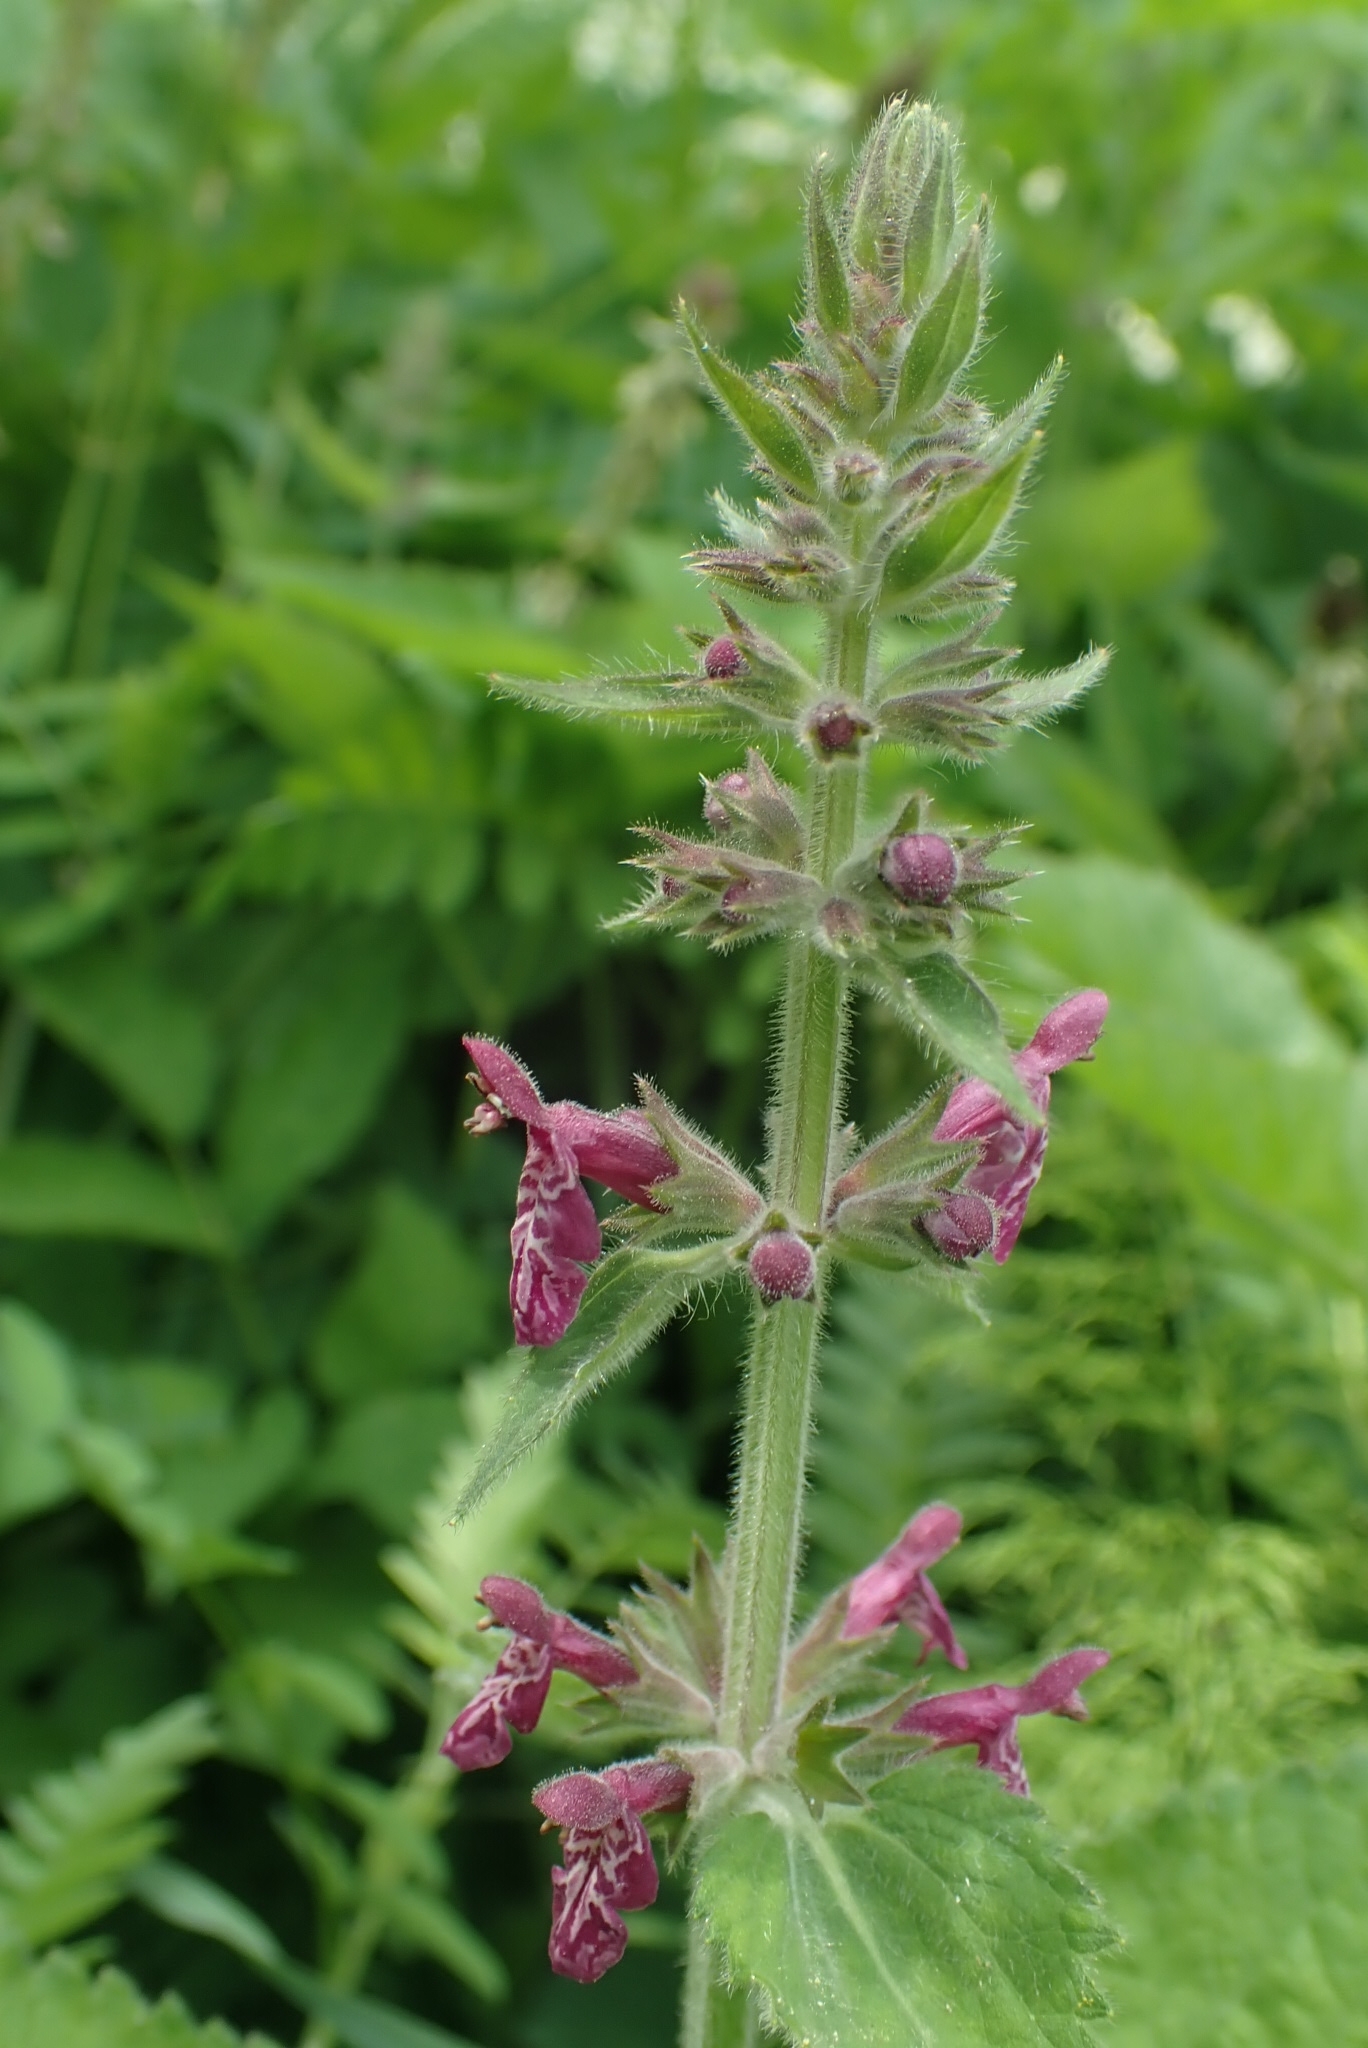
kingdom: Plantae
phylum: Tracheophyta
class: Magnoliopsida
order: Lamiales
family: Lamiaceae
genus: Stachys
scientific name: Stachys sylvatica
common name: Hedge woundwort
